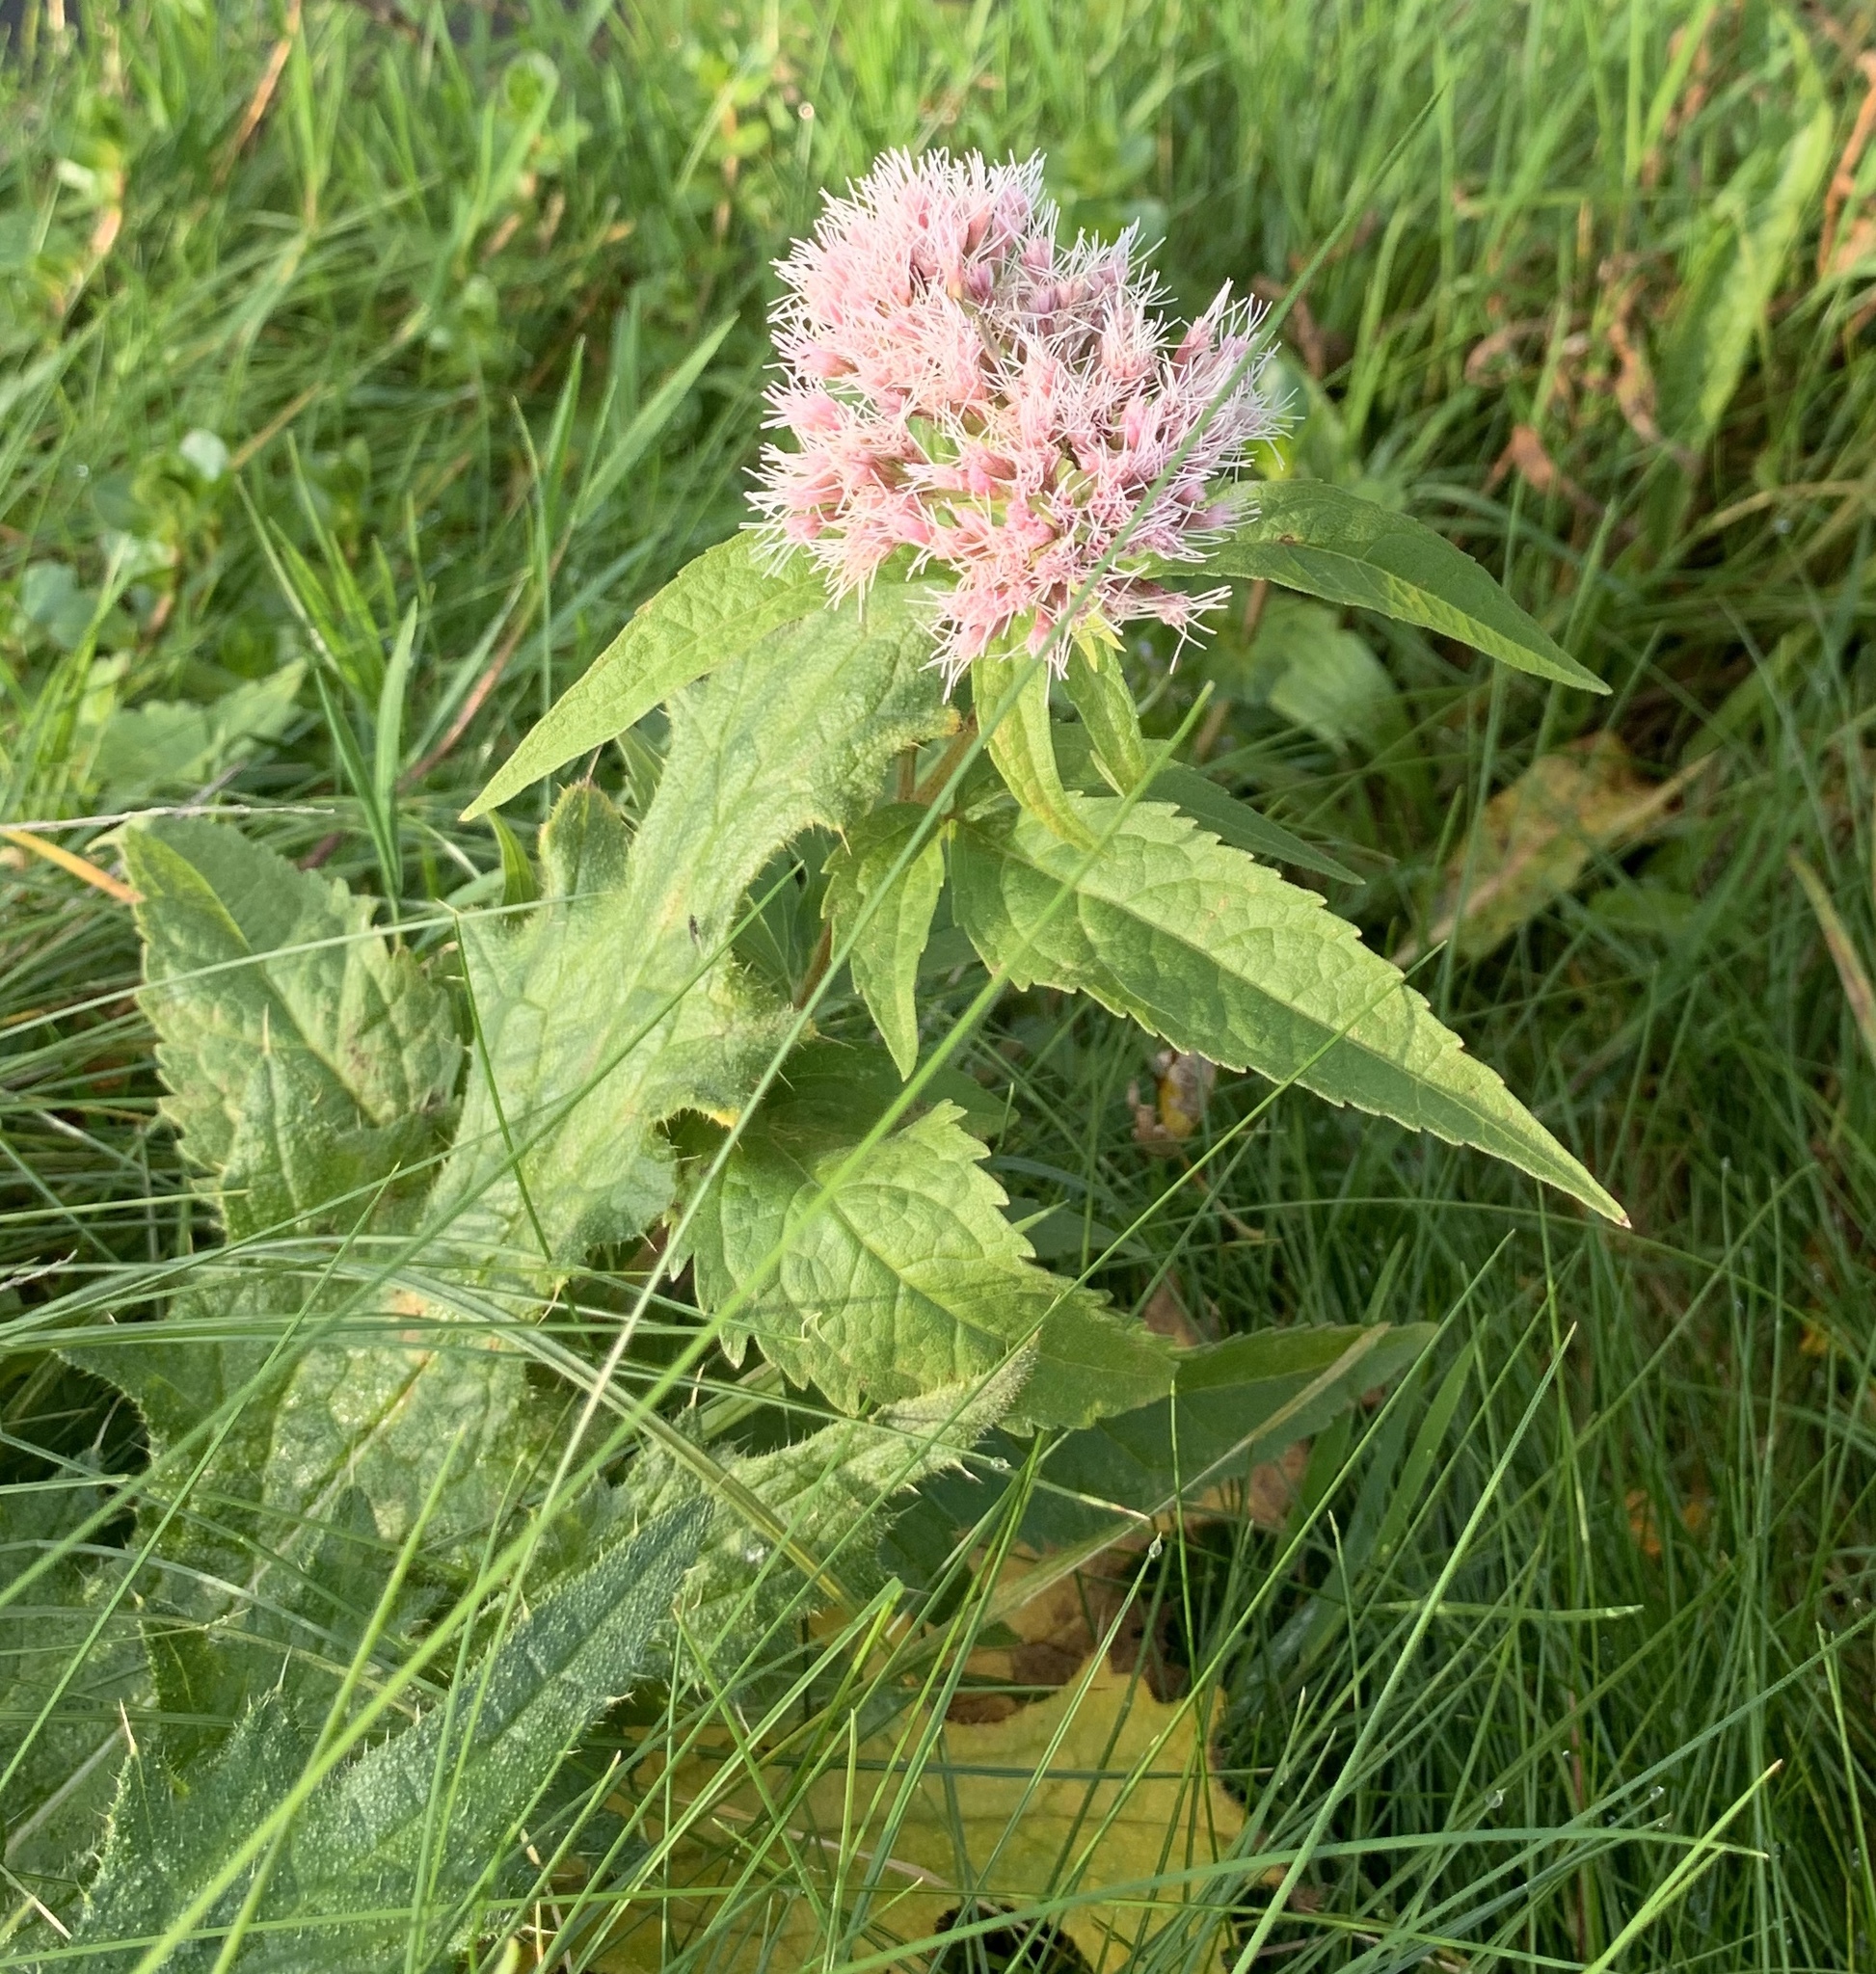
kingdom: Plantae
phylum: Tracheophyta
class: Magnoliopsida
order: Asterales
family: Asteraceae
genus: Eupatorium
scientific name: Eupatorium cannabinum
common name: Hemp-agrimony
